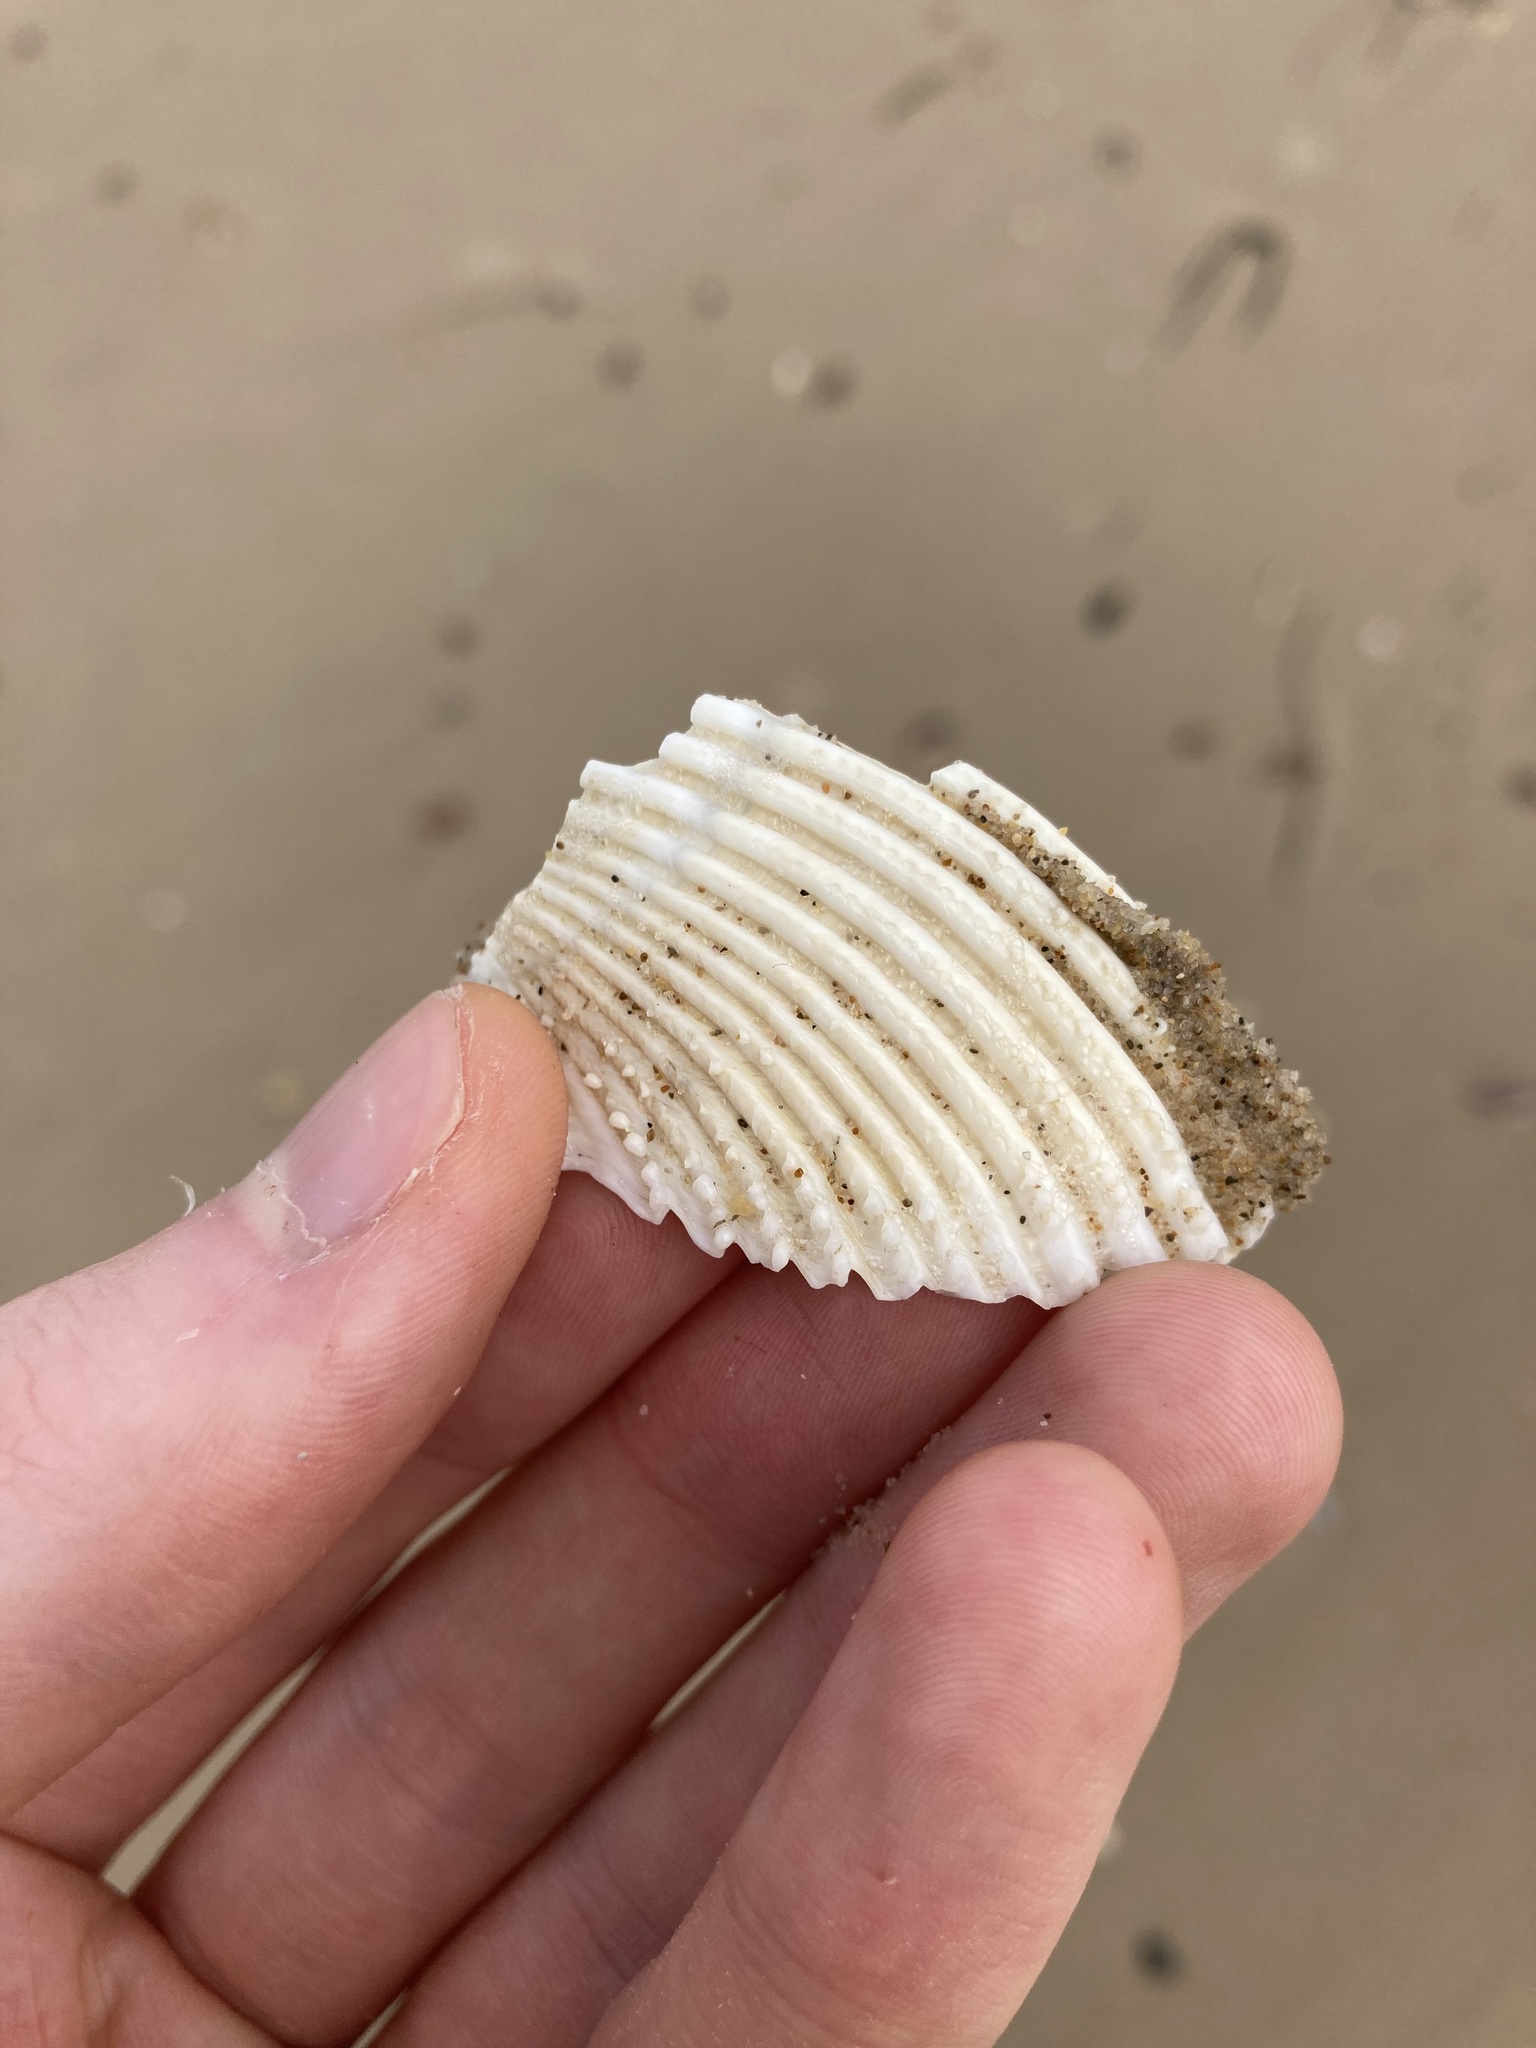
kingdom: Animalia
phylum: Mollusca
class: Bivalvia
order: Cardiida
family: Cardiidae
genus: Vepricardium
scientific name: Vepricardium multispinosum
